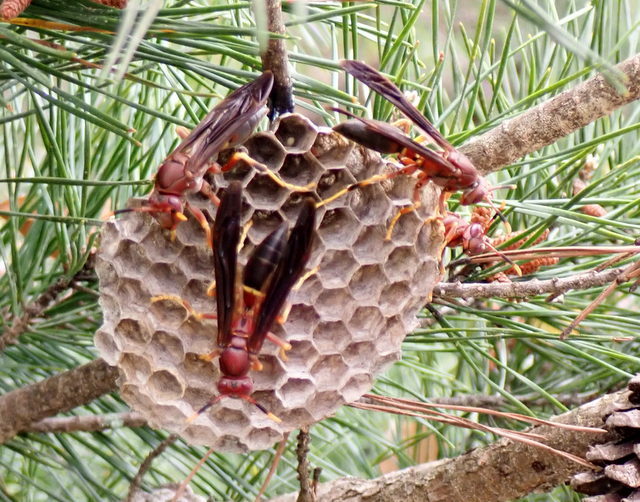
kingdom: Animalia
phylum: Arthropoda
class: Insecta
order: Hymenoptera
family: Eumenidae
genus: Polistes
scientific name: Polistes annularis
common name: Ringed paper wasp
